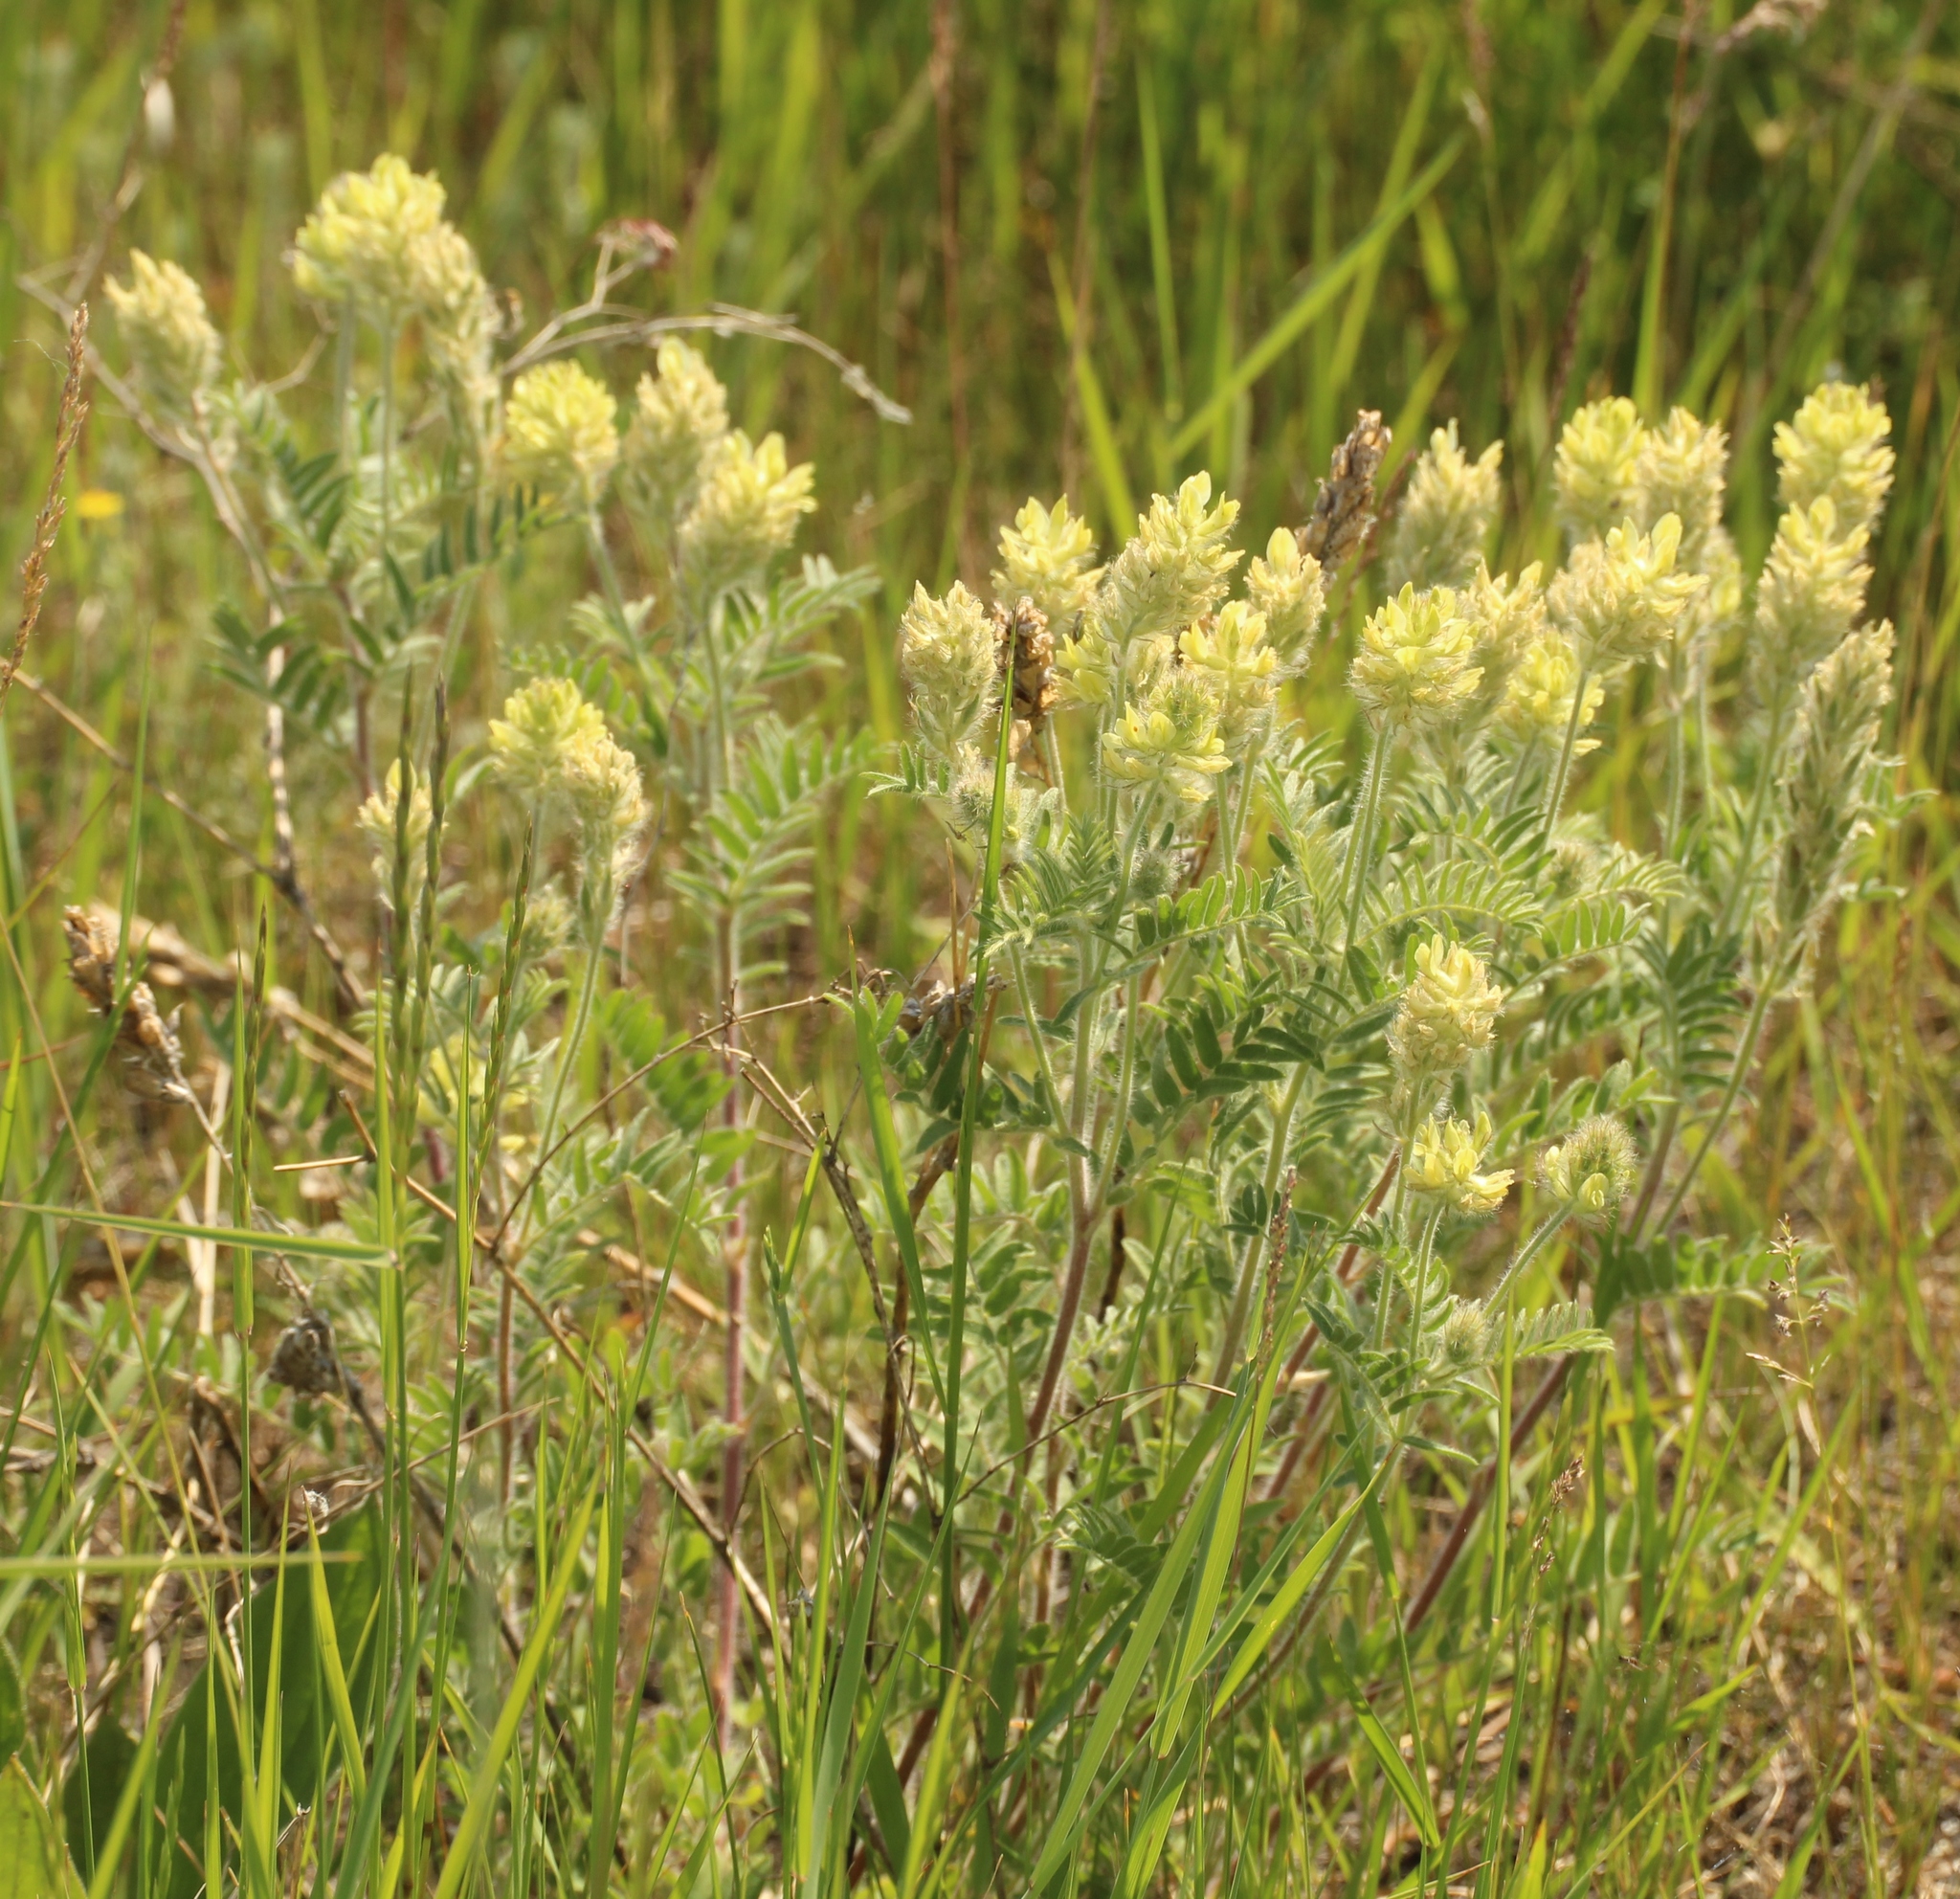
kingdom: Plantae
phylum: Tracheophyta
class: Magnoliopsida
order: Fabales
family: Fabaceae
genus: Oxytropis
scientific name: Oxytropis pilosa
